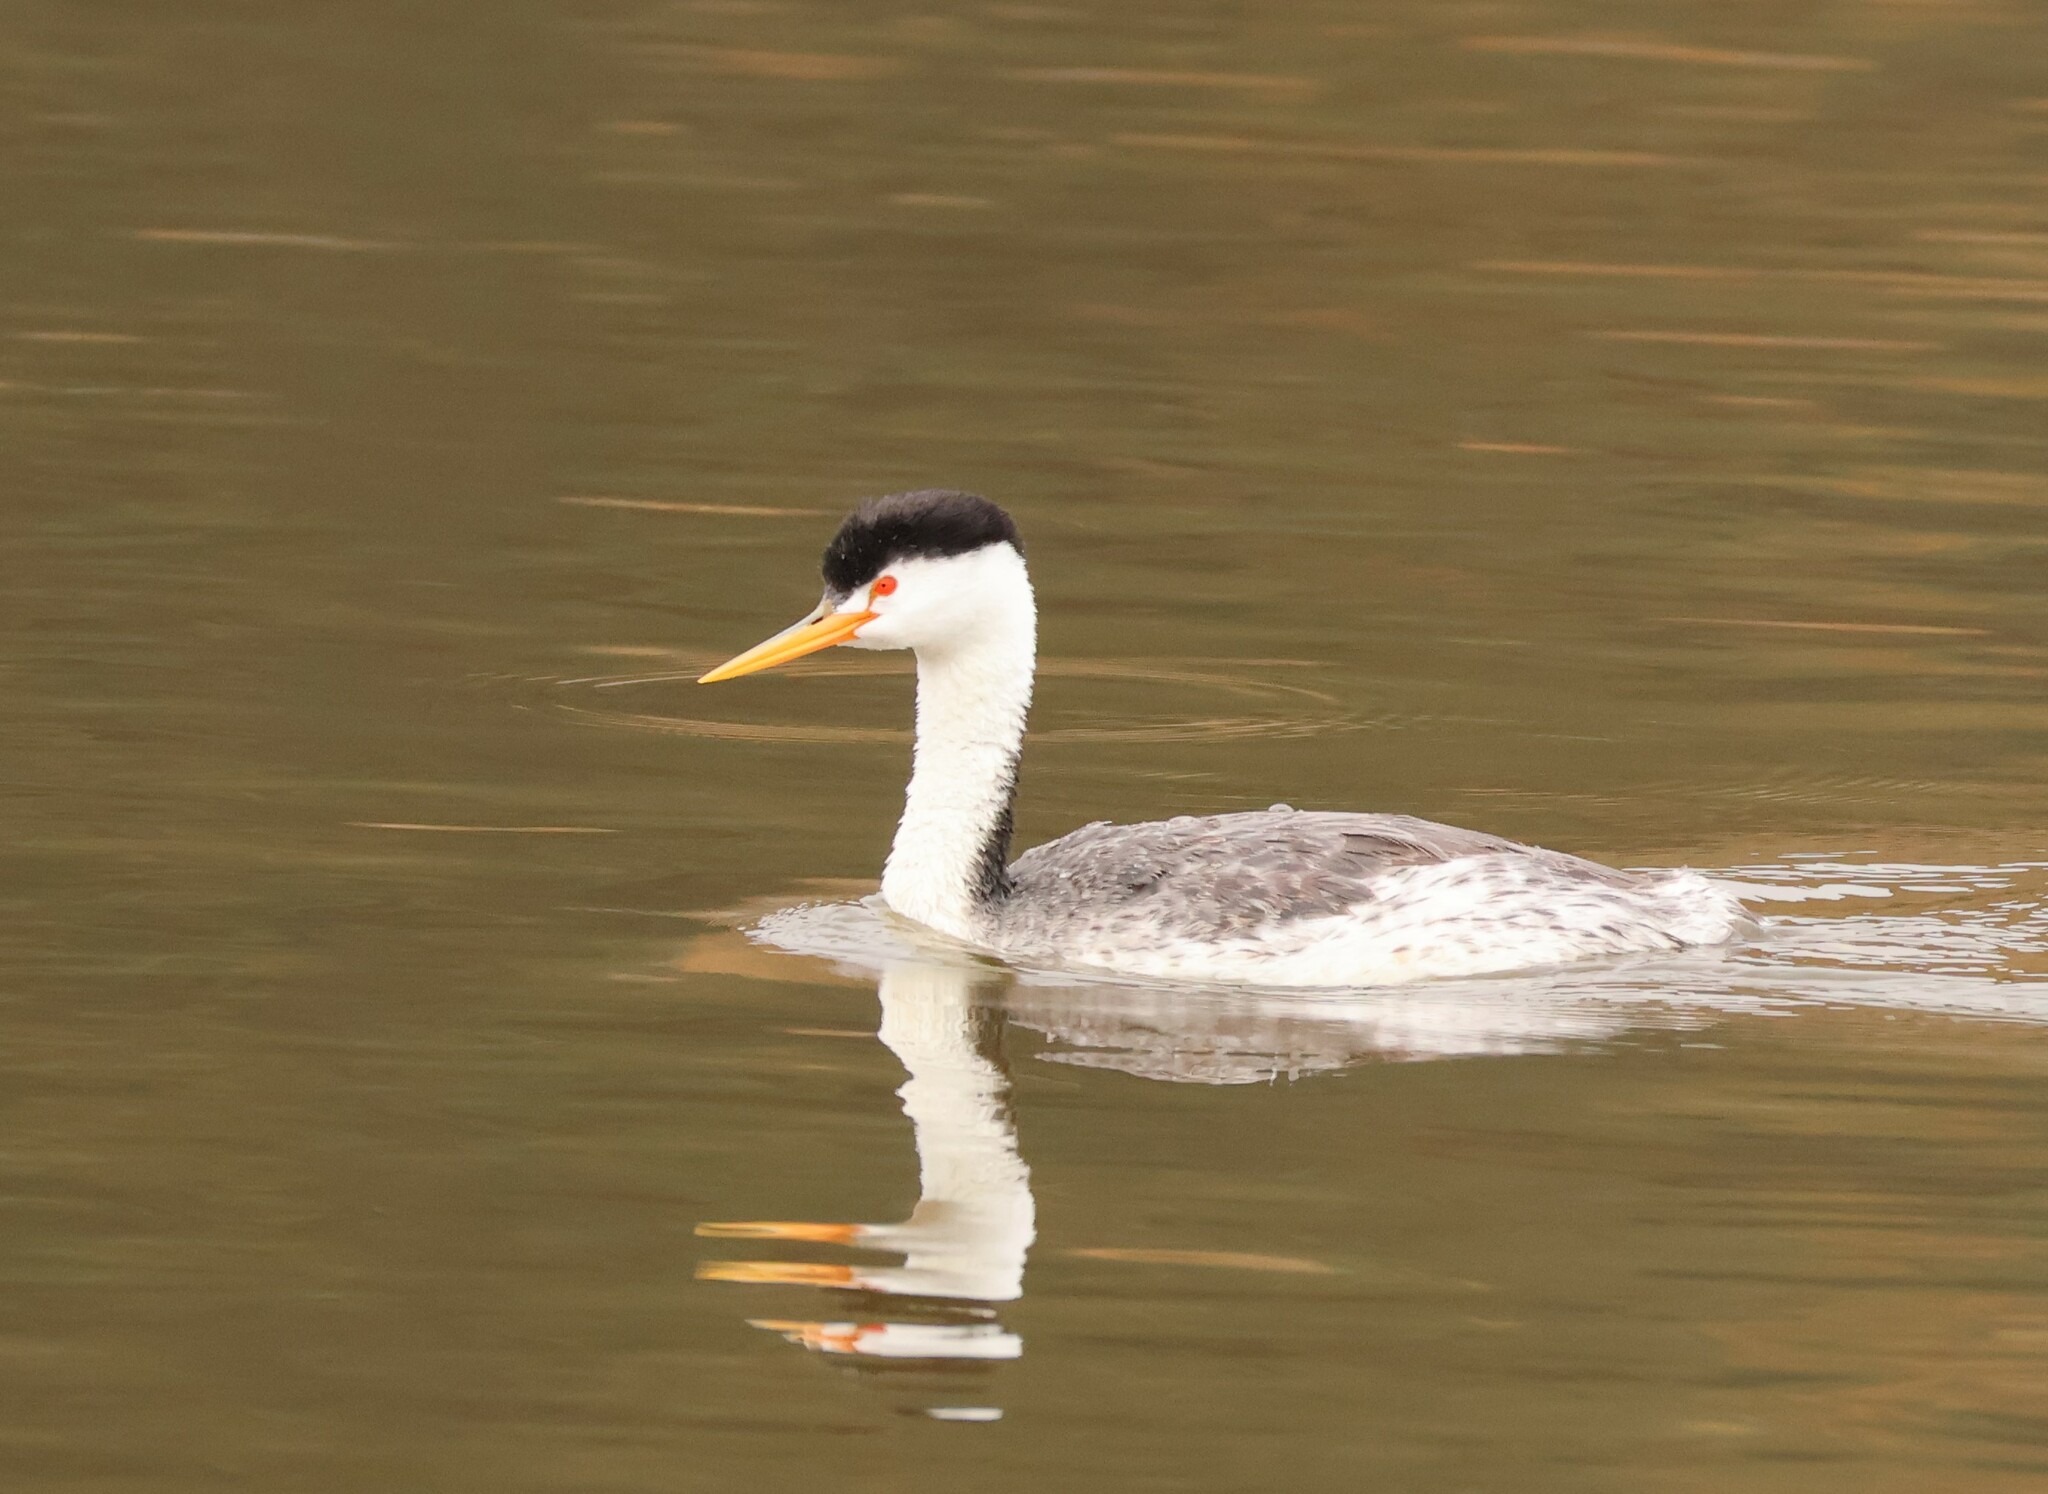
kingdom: Animalia
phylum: Chordata
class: Aves
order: Podicipediformes
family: Podicipedidae
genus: Aechmophorus
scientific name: Aechmophorus clarkii
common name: Clark's grebe
